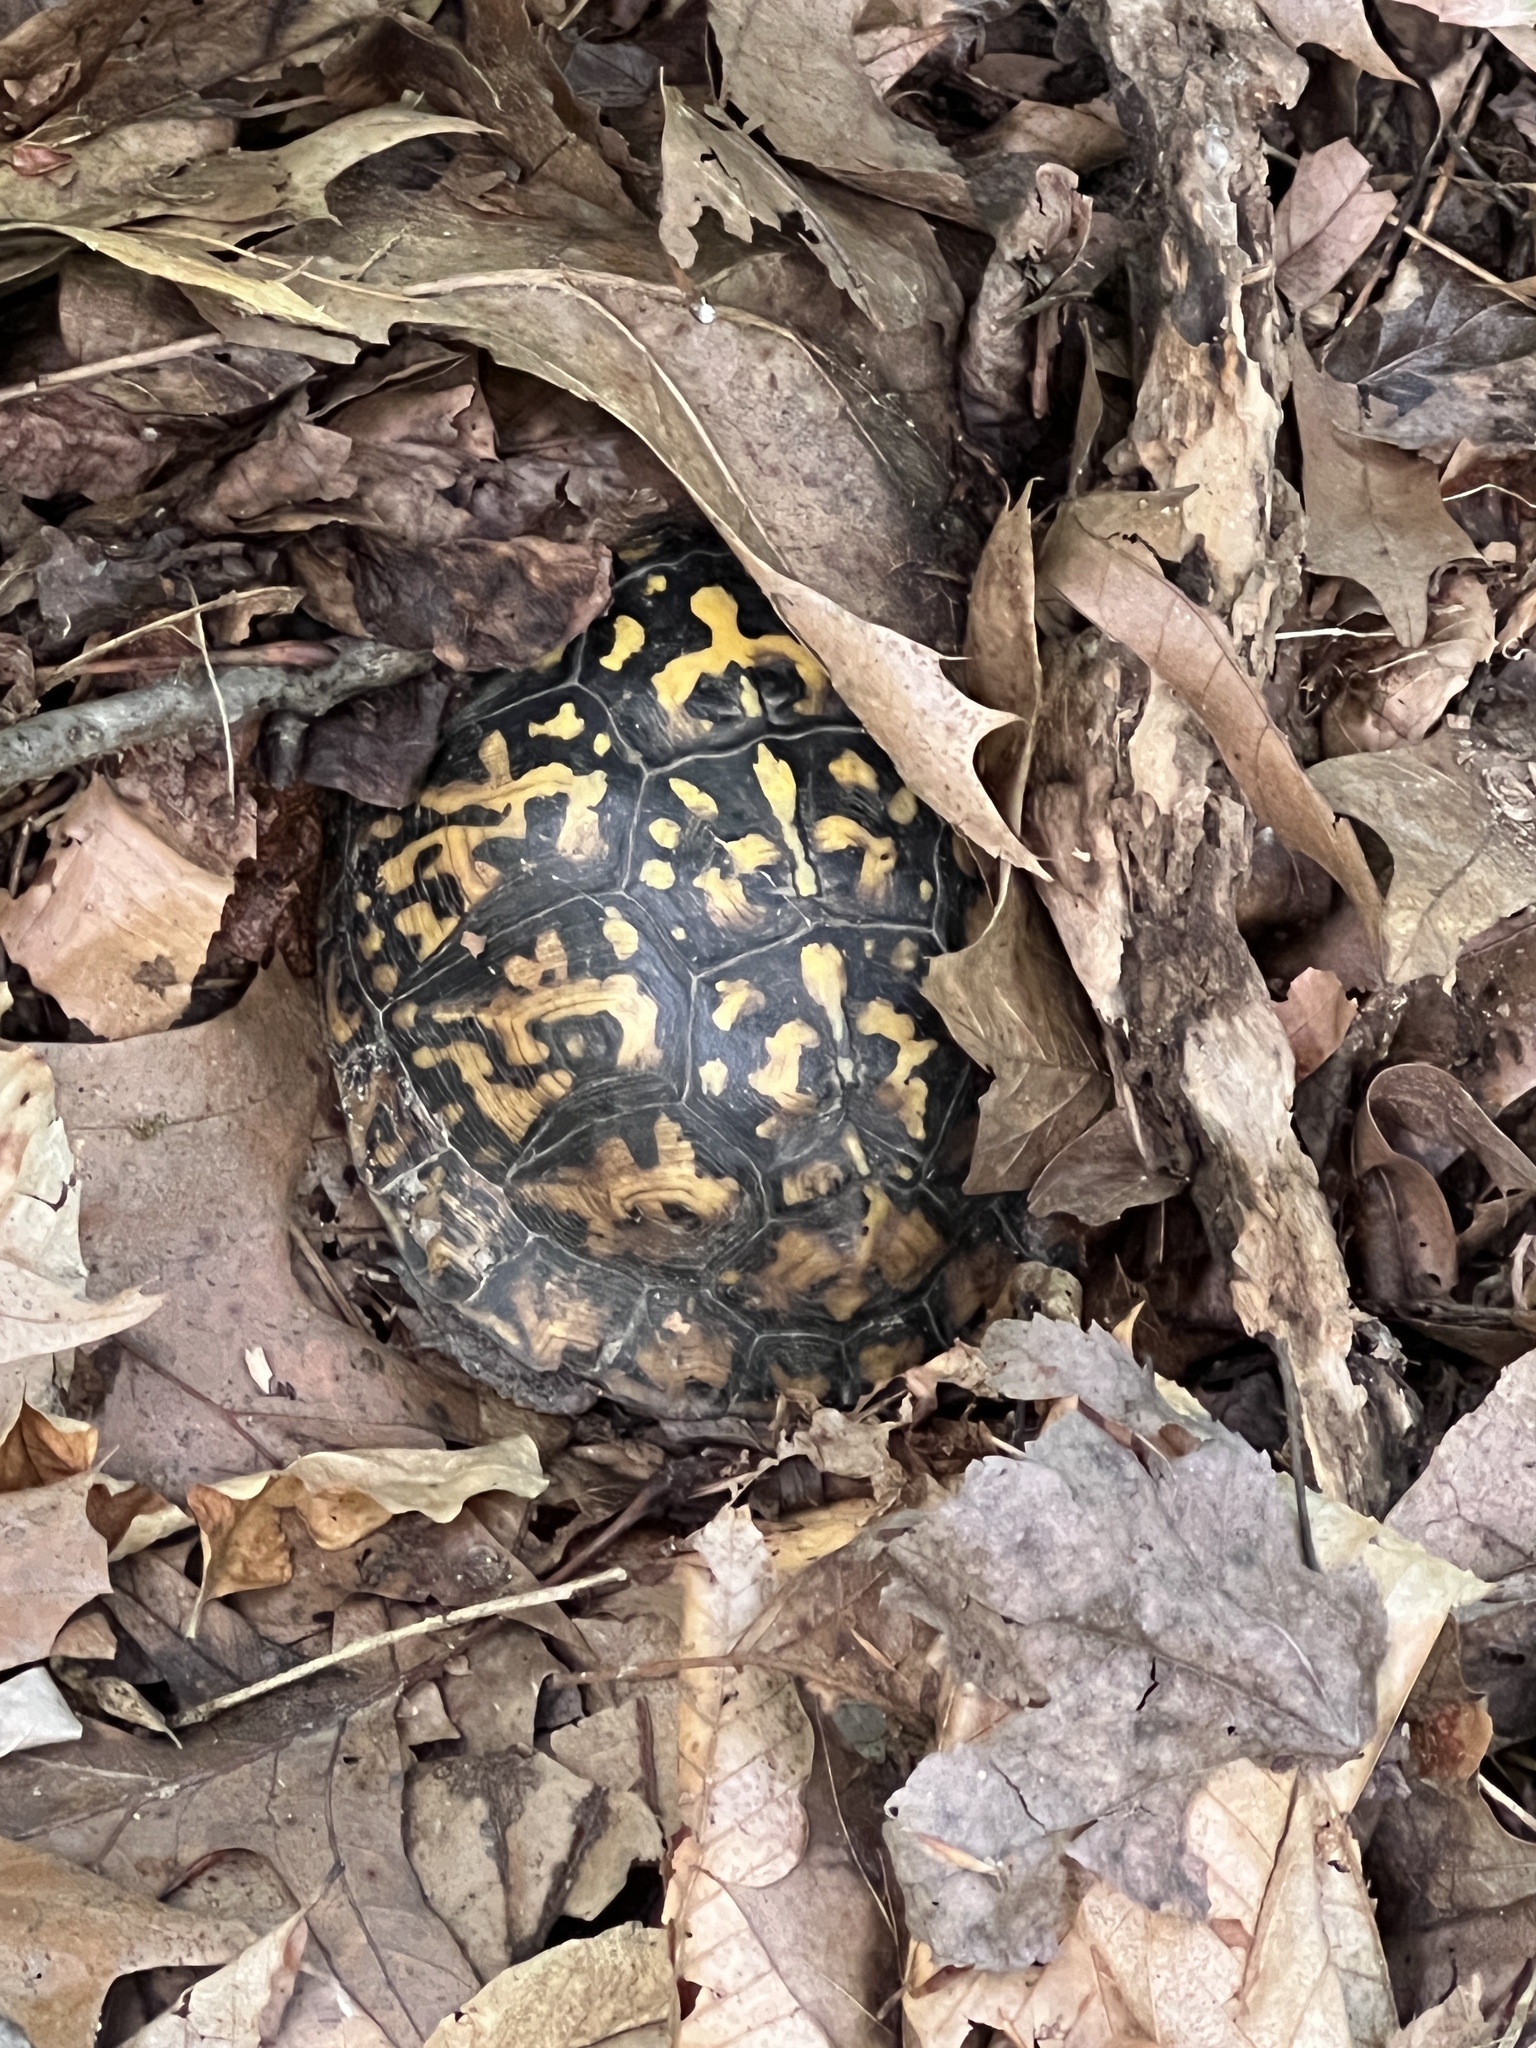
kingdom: Animalia
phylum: Chordata
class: Testudines
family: Emydidae
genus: Terrapene
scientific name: Terrapene carolina
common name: Common box turtle
